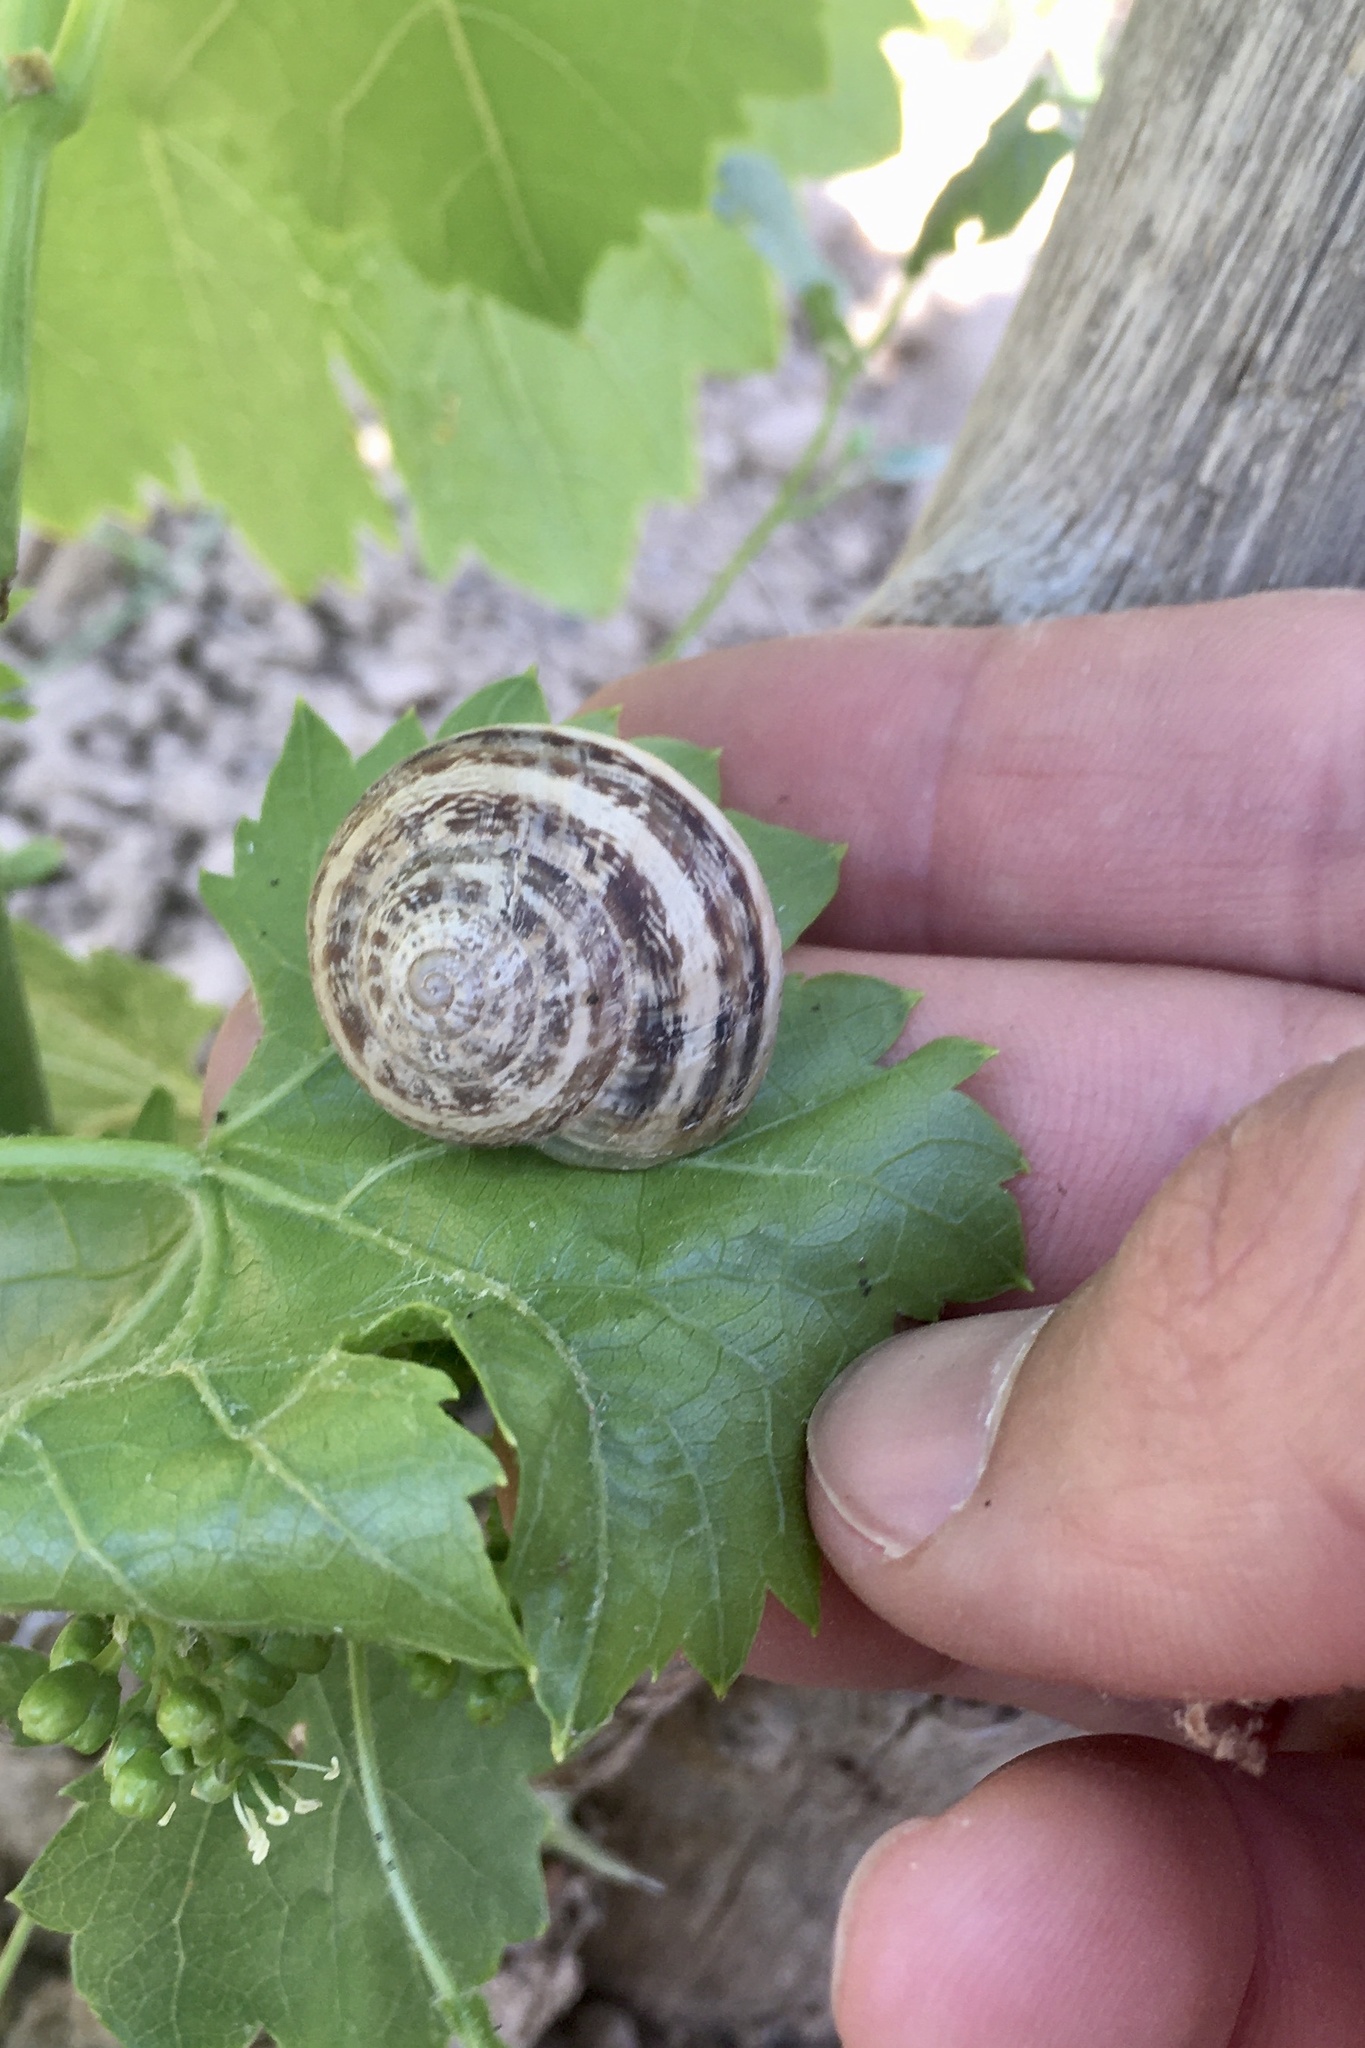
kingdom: Animalia
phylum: Mollusca
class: Gastropoda
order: Stylommatophora
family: Helicidae
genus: Eobania
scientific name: Eobania vermiculata
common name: Chocolateband snail
